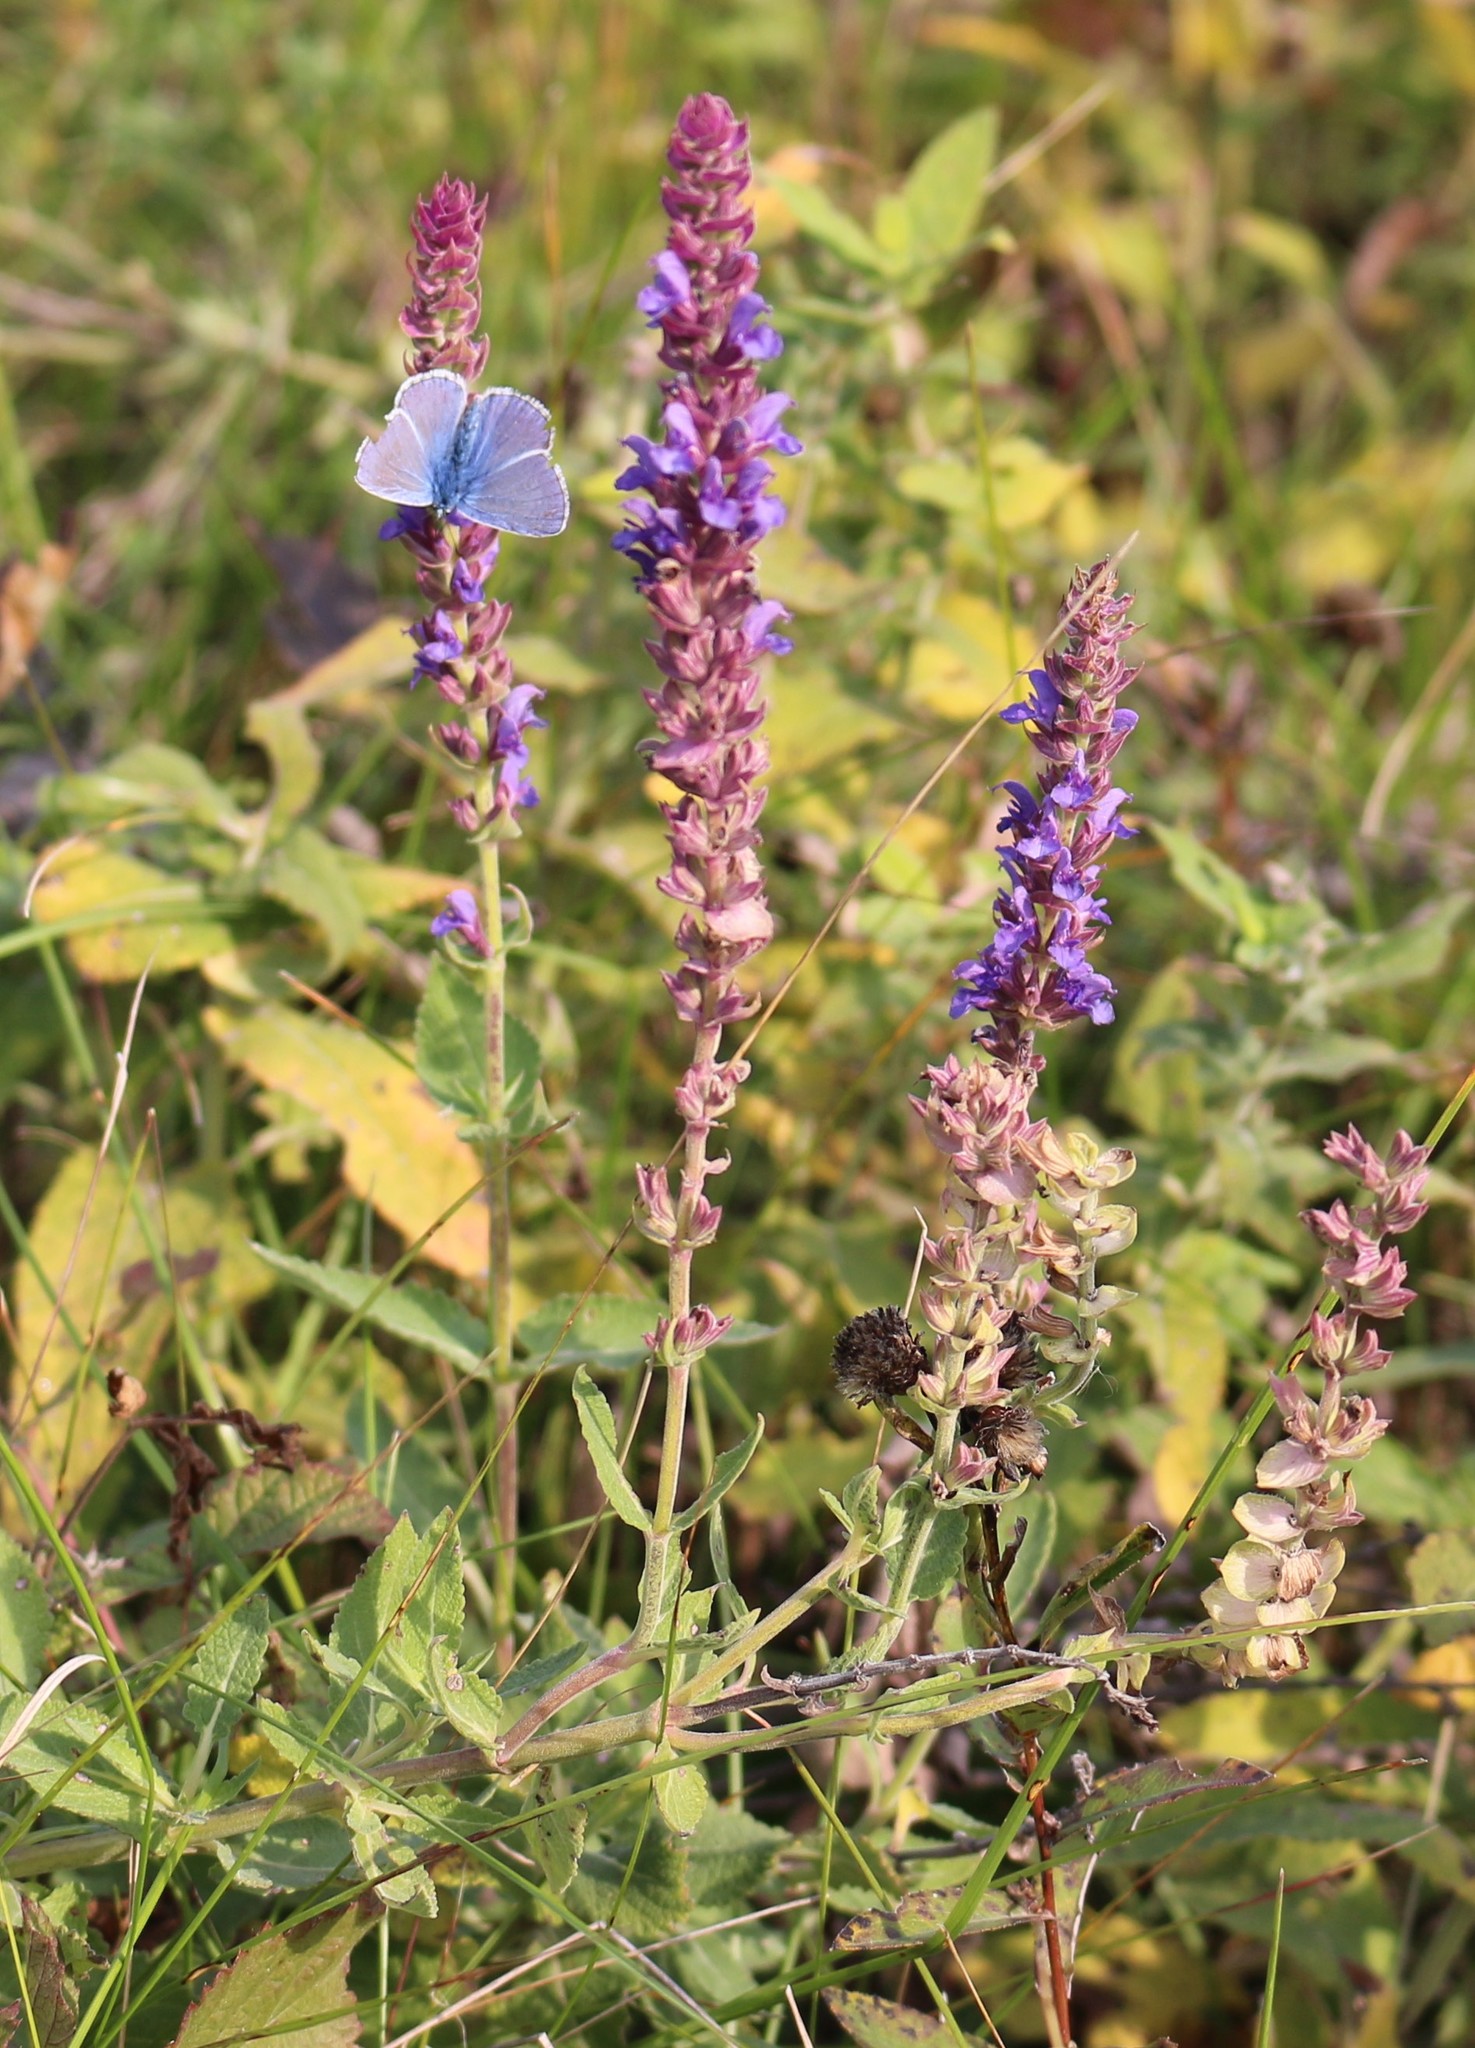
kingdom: Plantae
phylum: Tracheophyta
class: Magnoliopsida
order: Lamiales
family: Lamiaceae
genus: Salvia
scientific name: Salvia nemorosa
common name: Balkan clary
